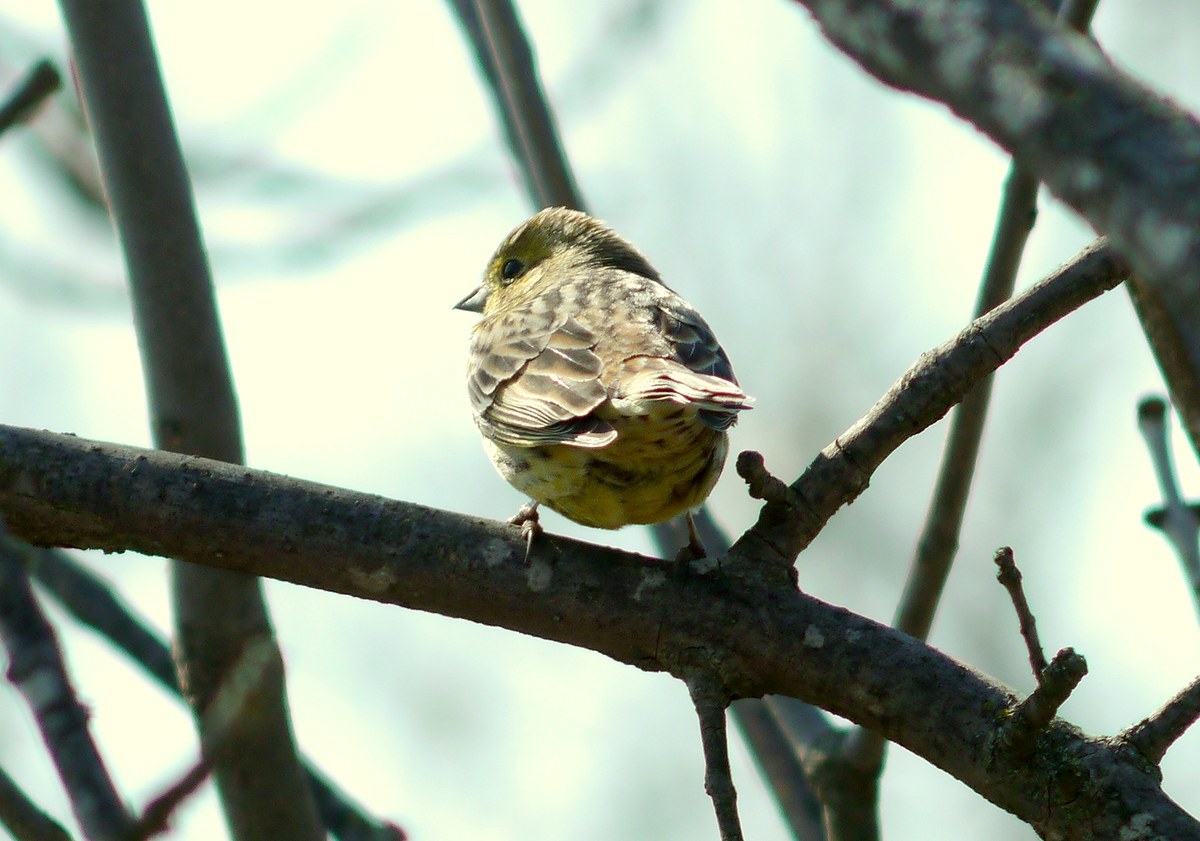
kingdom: Animalia
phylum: Chordata
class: Aves
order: Passeriformes
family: Emberizidae
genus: Emberiza
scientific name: Emberiza citrinella
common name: Yellowhammer
